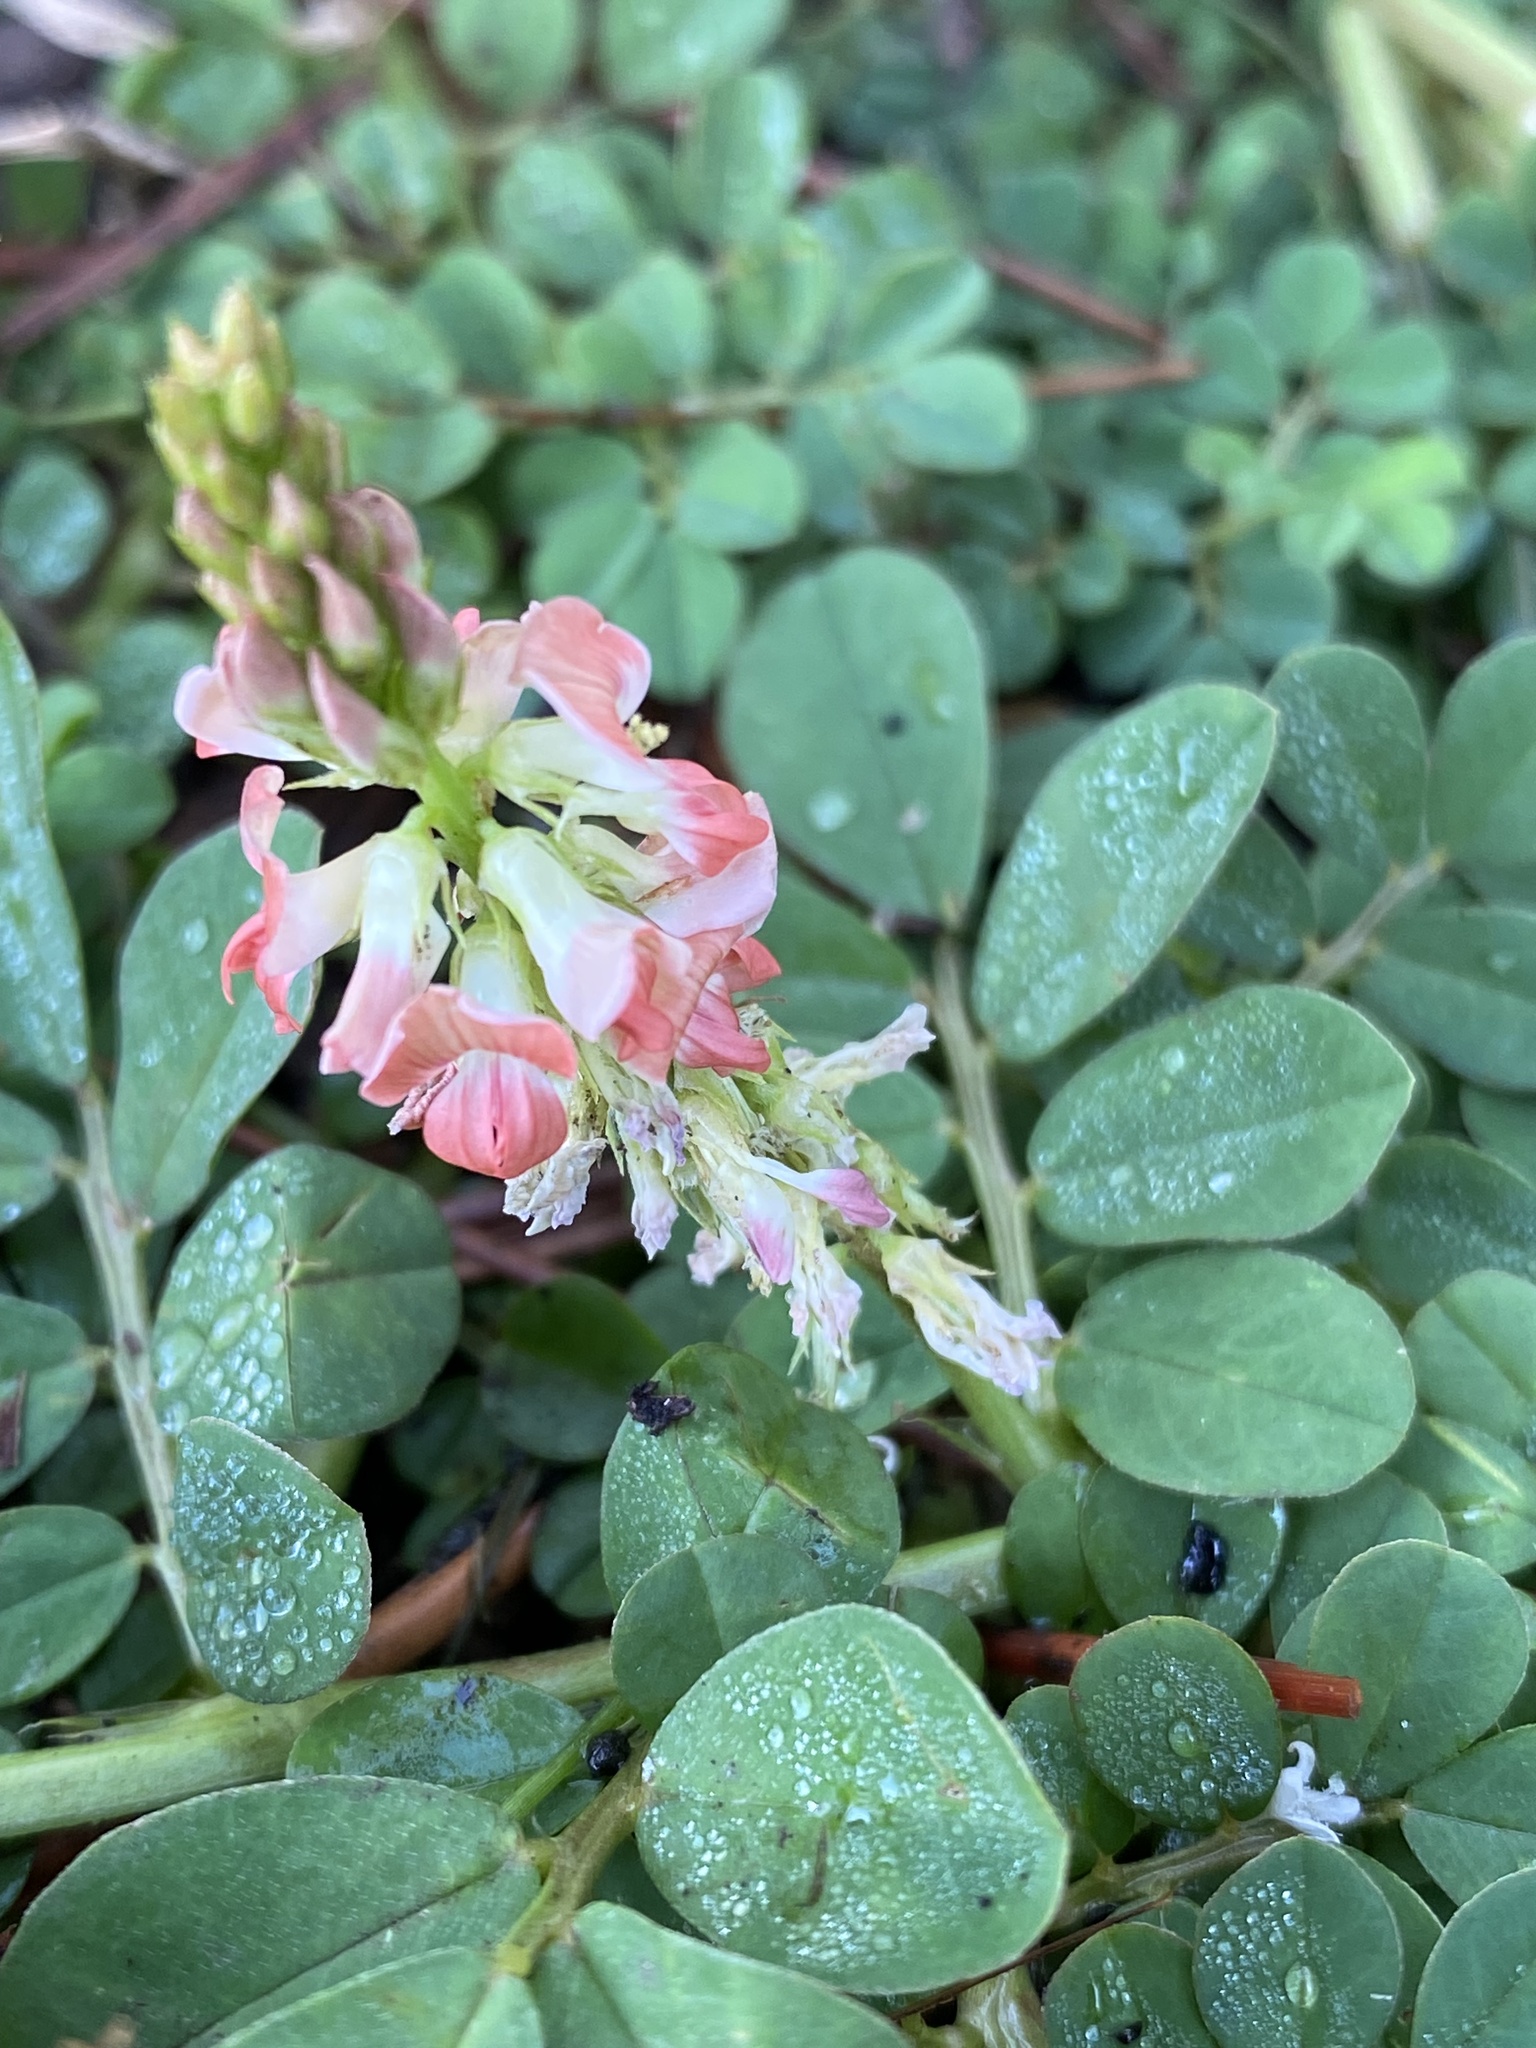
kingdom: Plantae
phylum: Tracheophyta
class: Magnoliopsida
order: Fabales
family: Fabaceae
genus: Indigofera
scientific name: Indigofera spicata
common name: Creeping indigo
